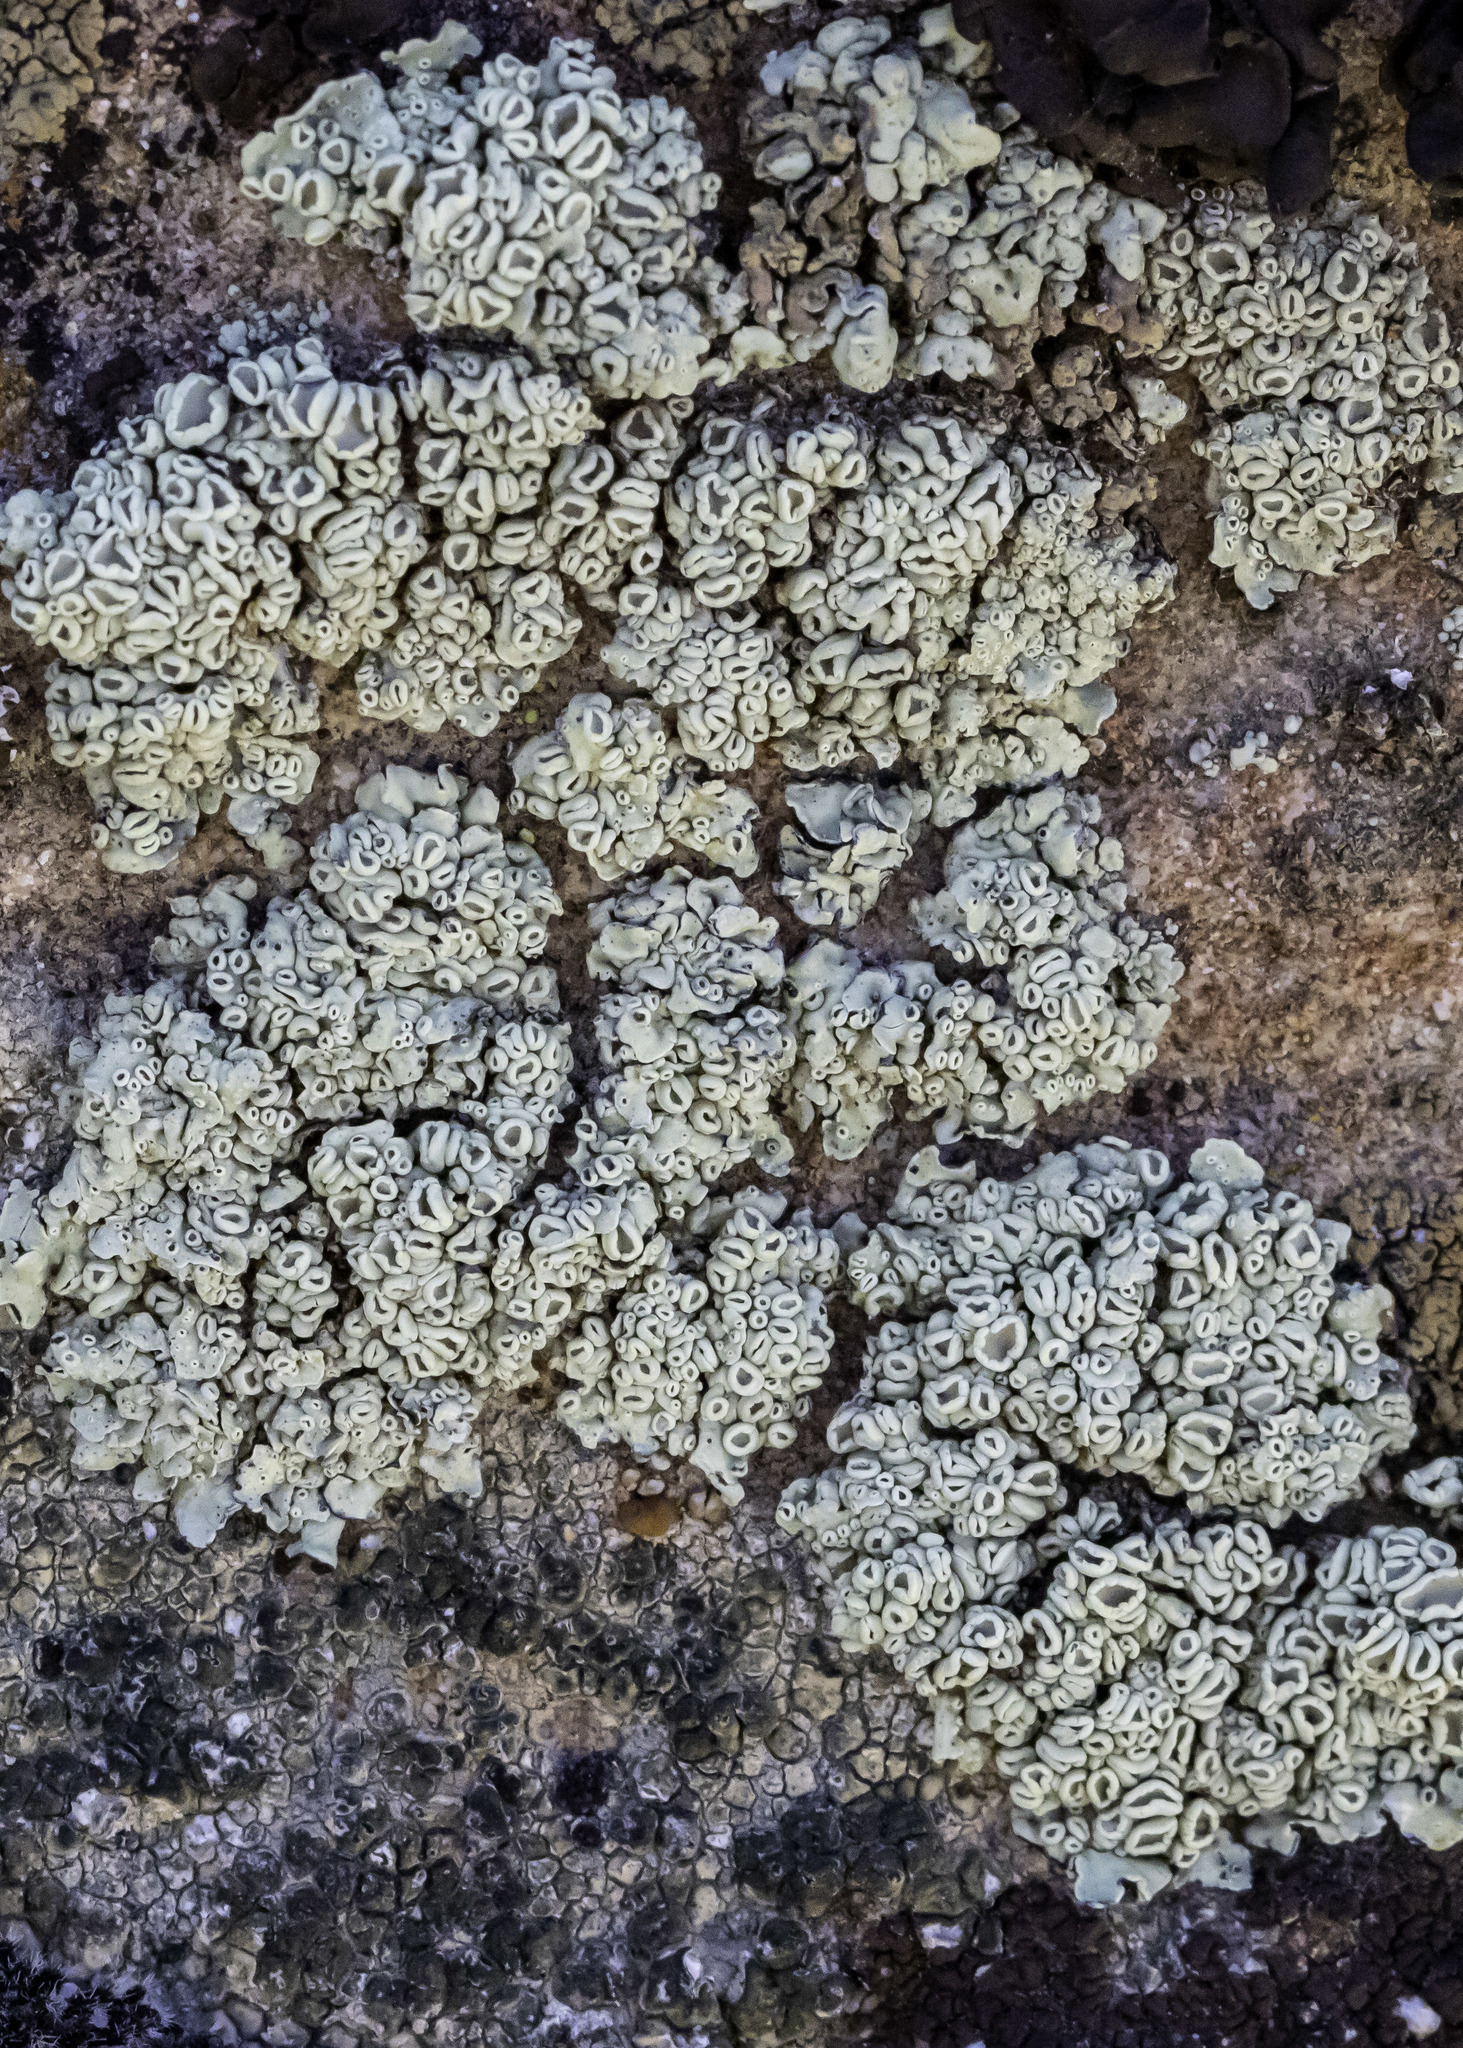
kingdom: Fungi
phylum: Ascomycota
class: Lecanoromycetes
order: Lecanorales
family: Lecanoraceae
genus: Rhizoplaca
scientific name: Rhizoplaca melanophthalma
